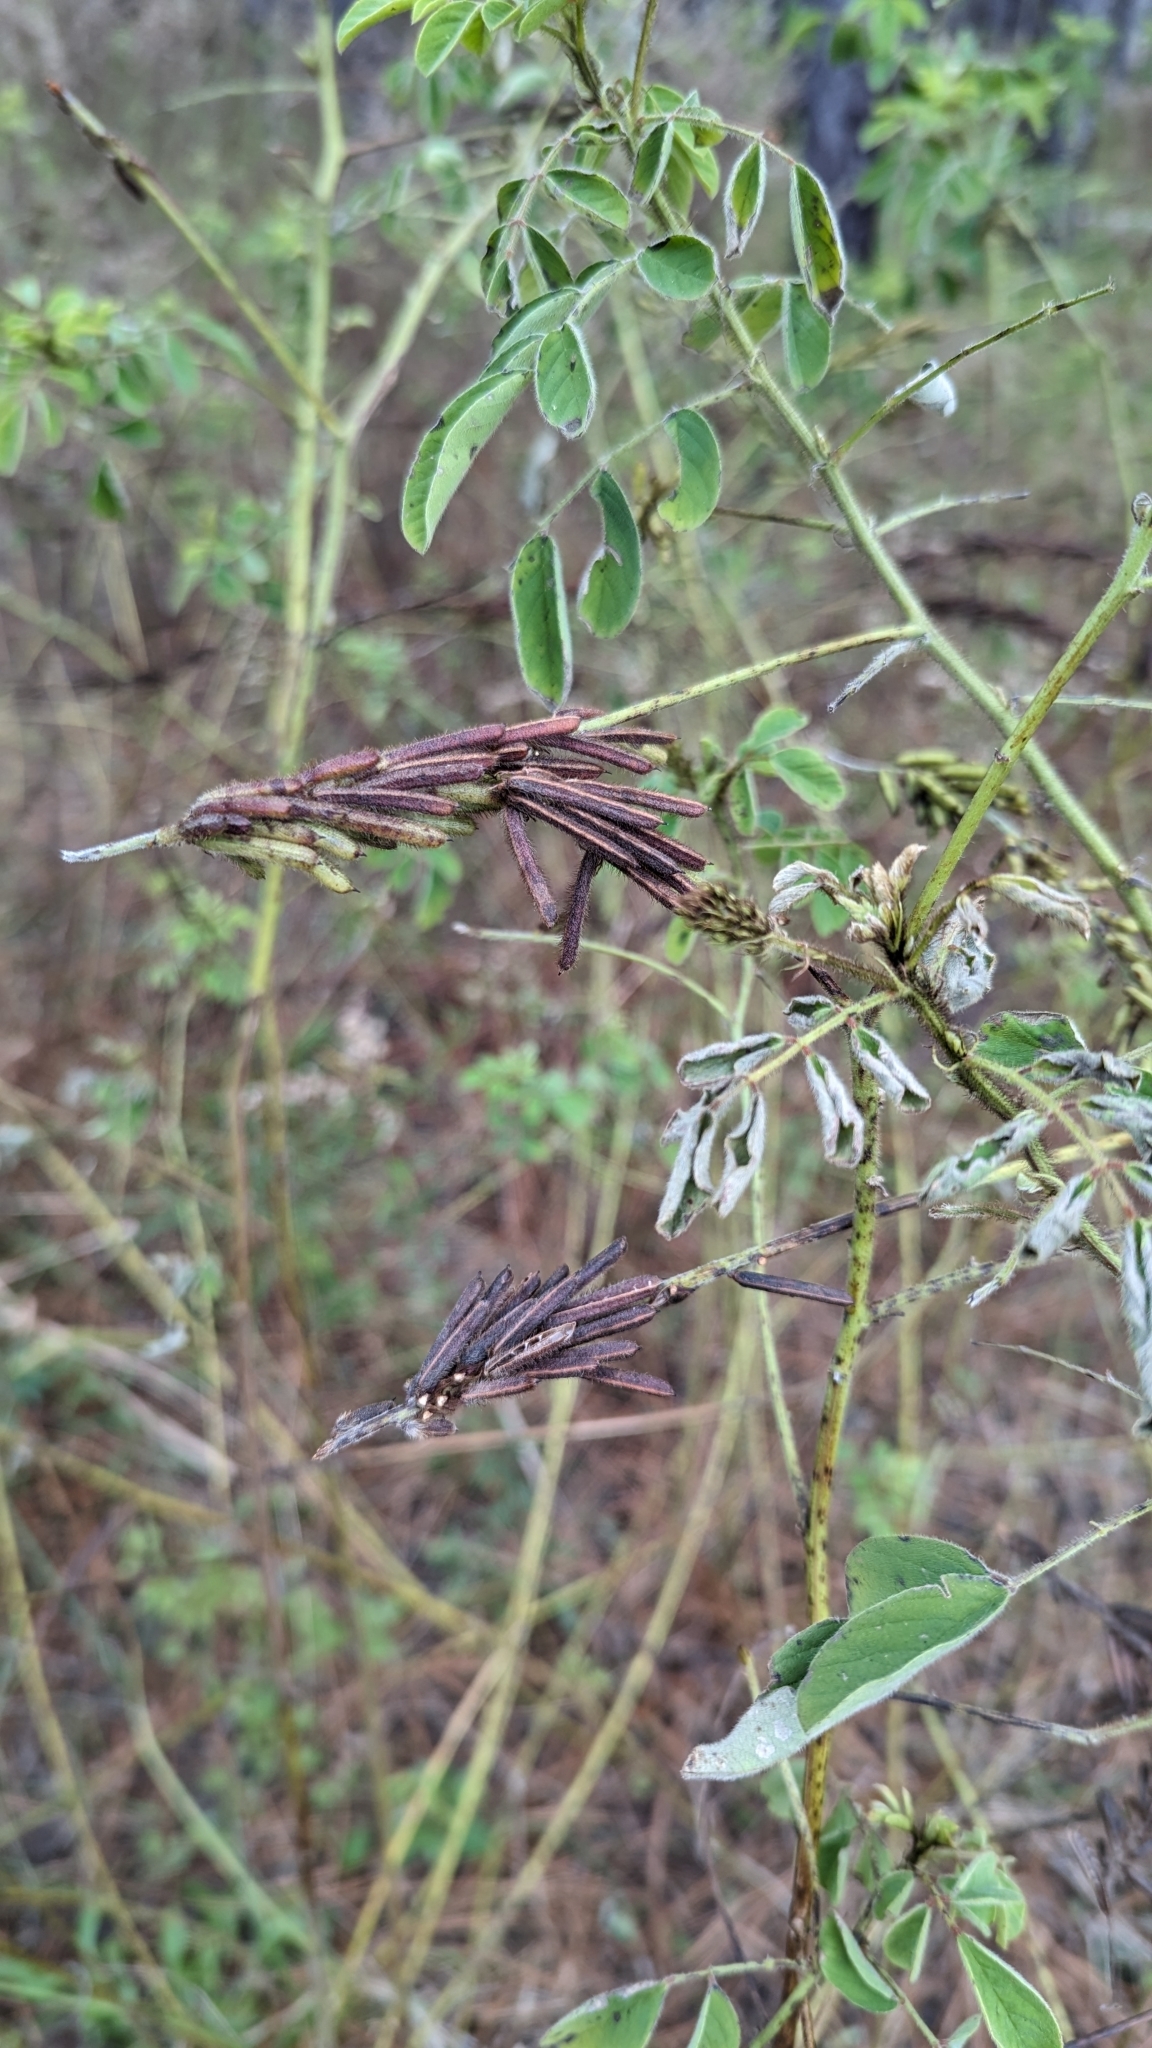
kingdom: Plantae
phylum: Tracheophyta
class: Magnoliopsida
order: Fabales
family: Fabaceae
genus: Indigofera
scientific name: Indigofera hirsuta
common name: Hairy indigo
